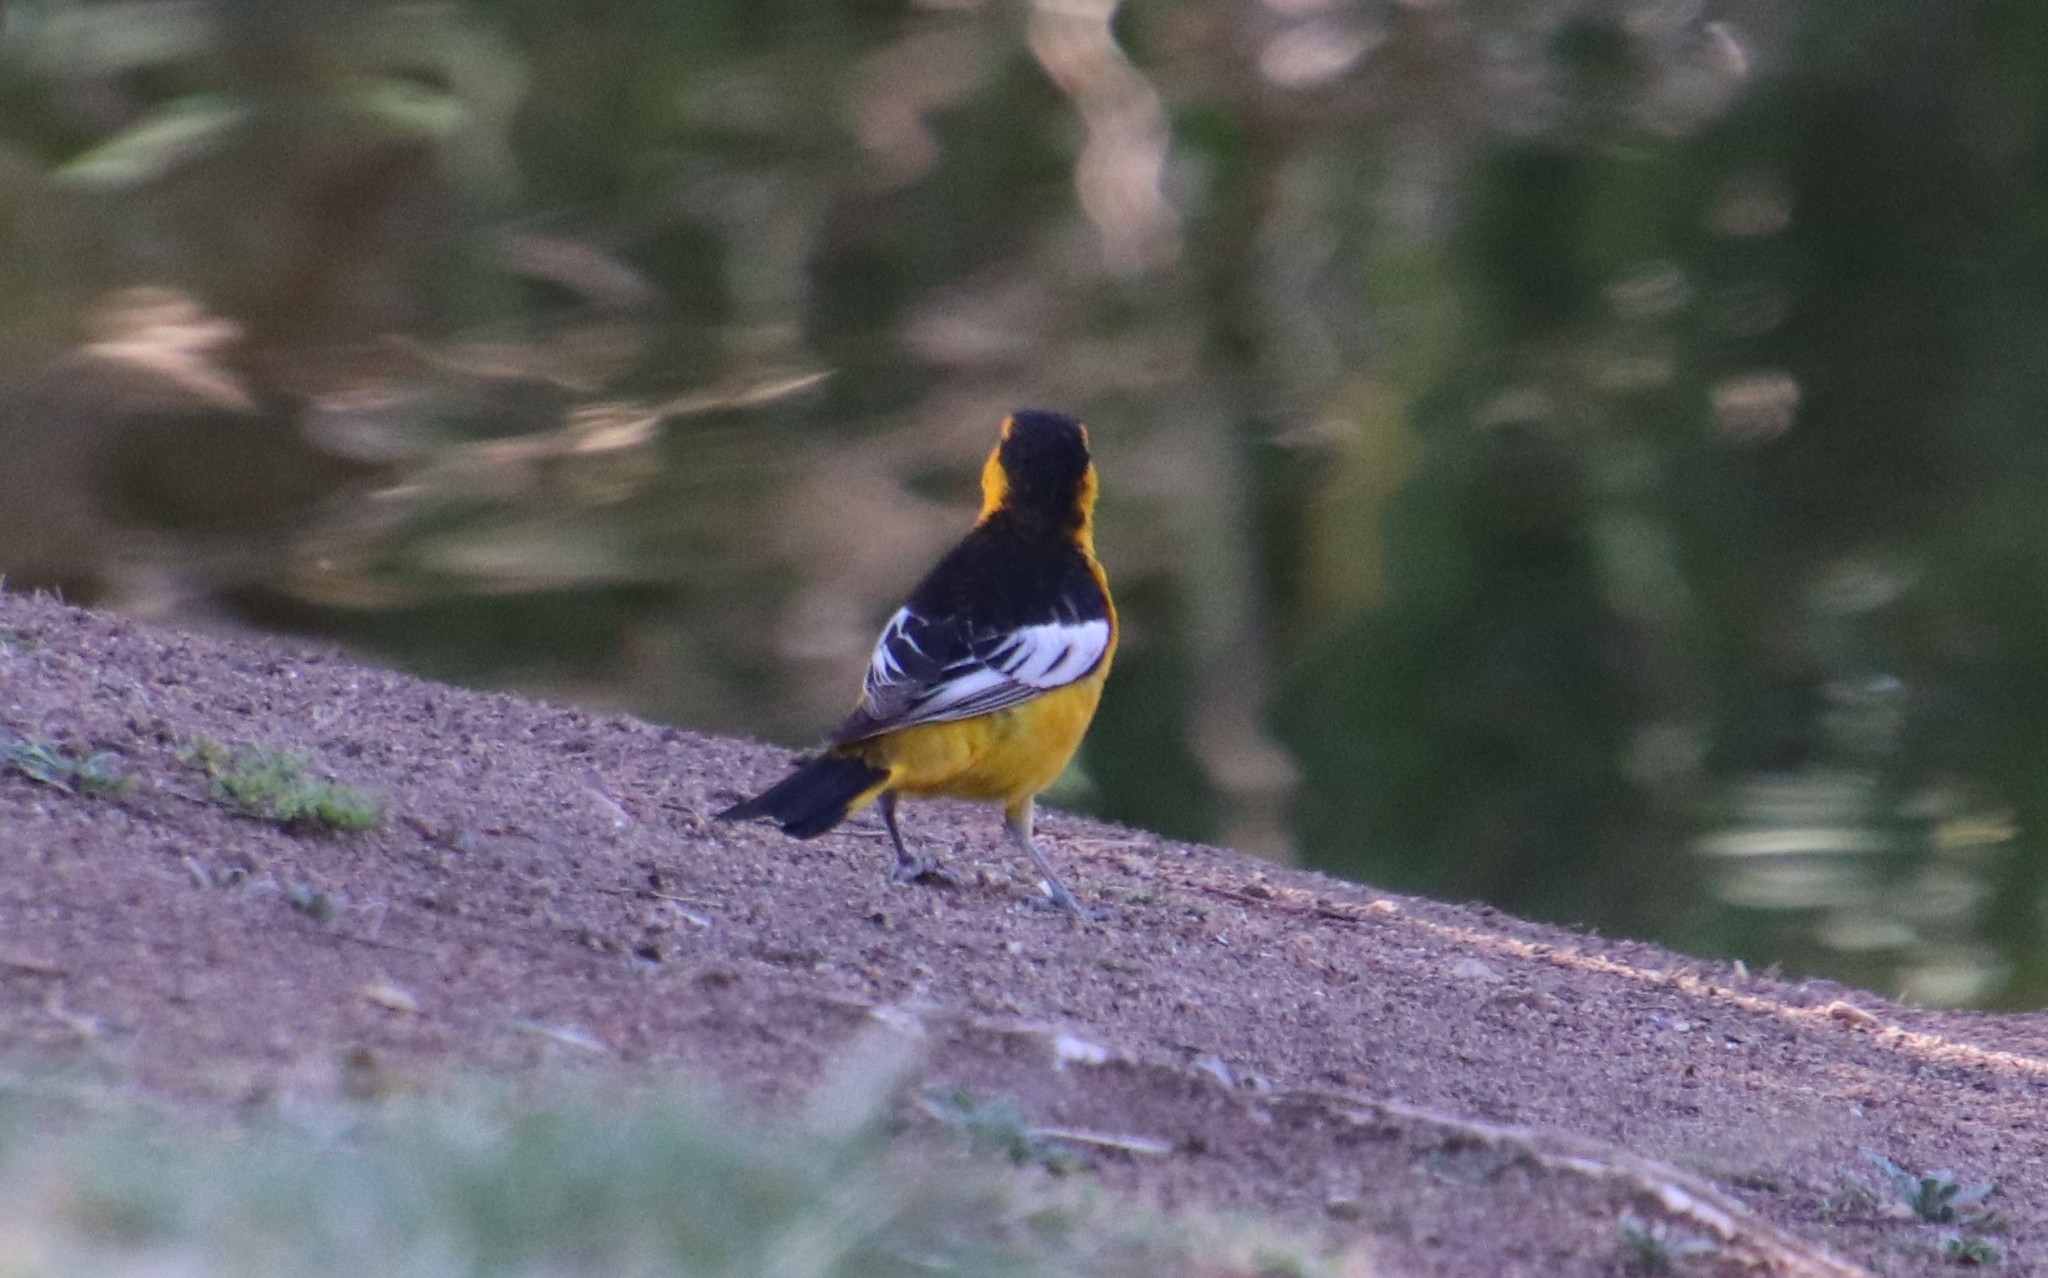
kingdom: Animalia
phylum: Chordata
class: Aves
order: Passeriformes
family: Icteridae
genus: Icterus
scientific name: Icterus bullockii
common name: Bullock's oriole
